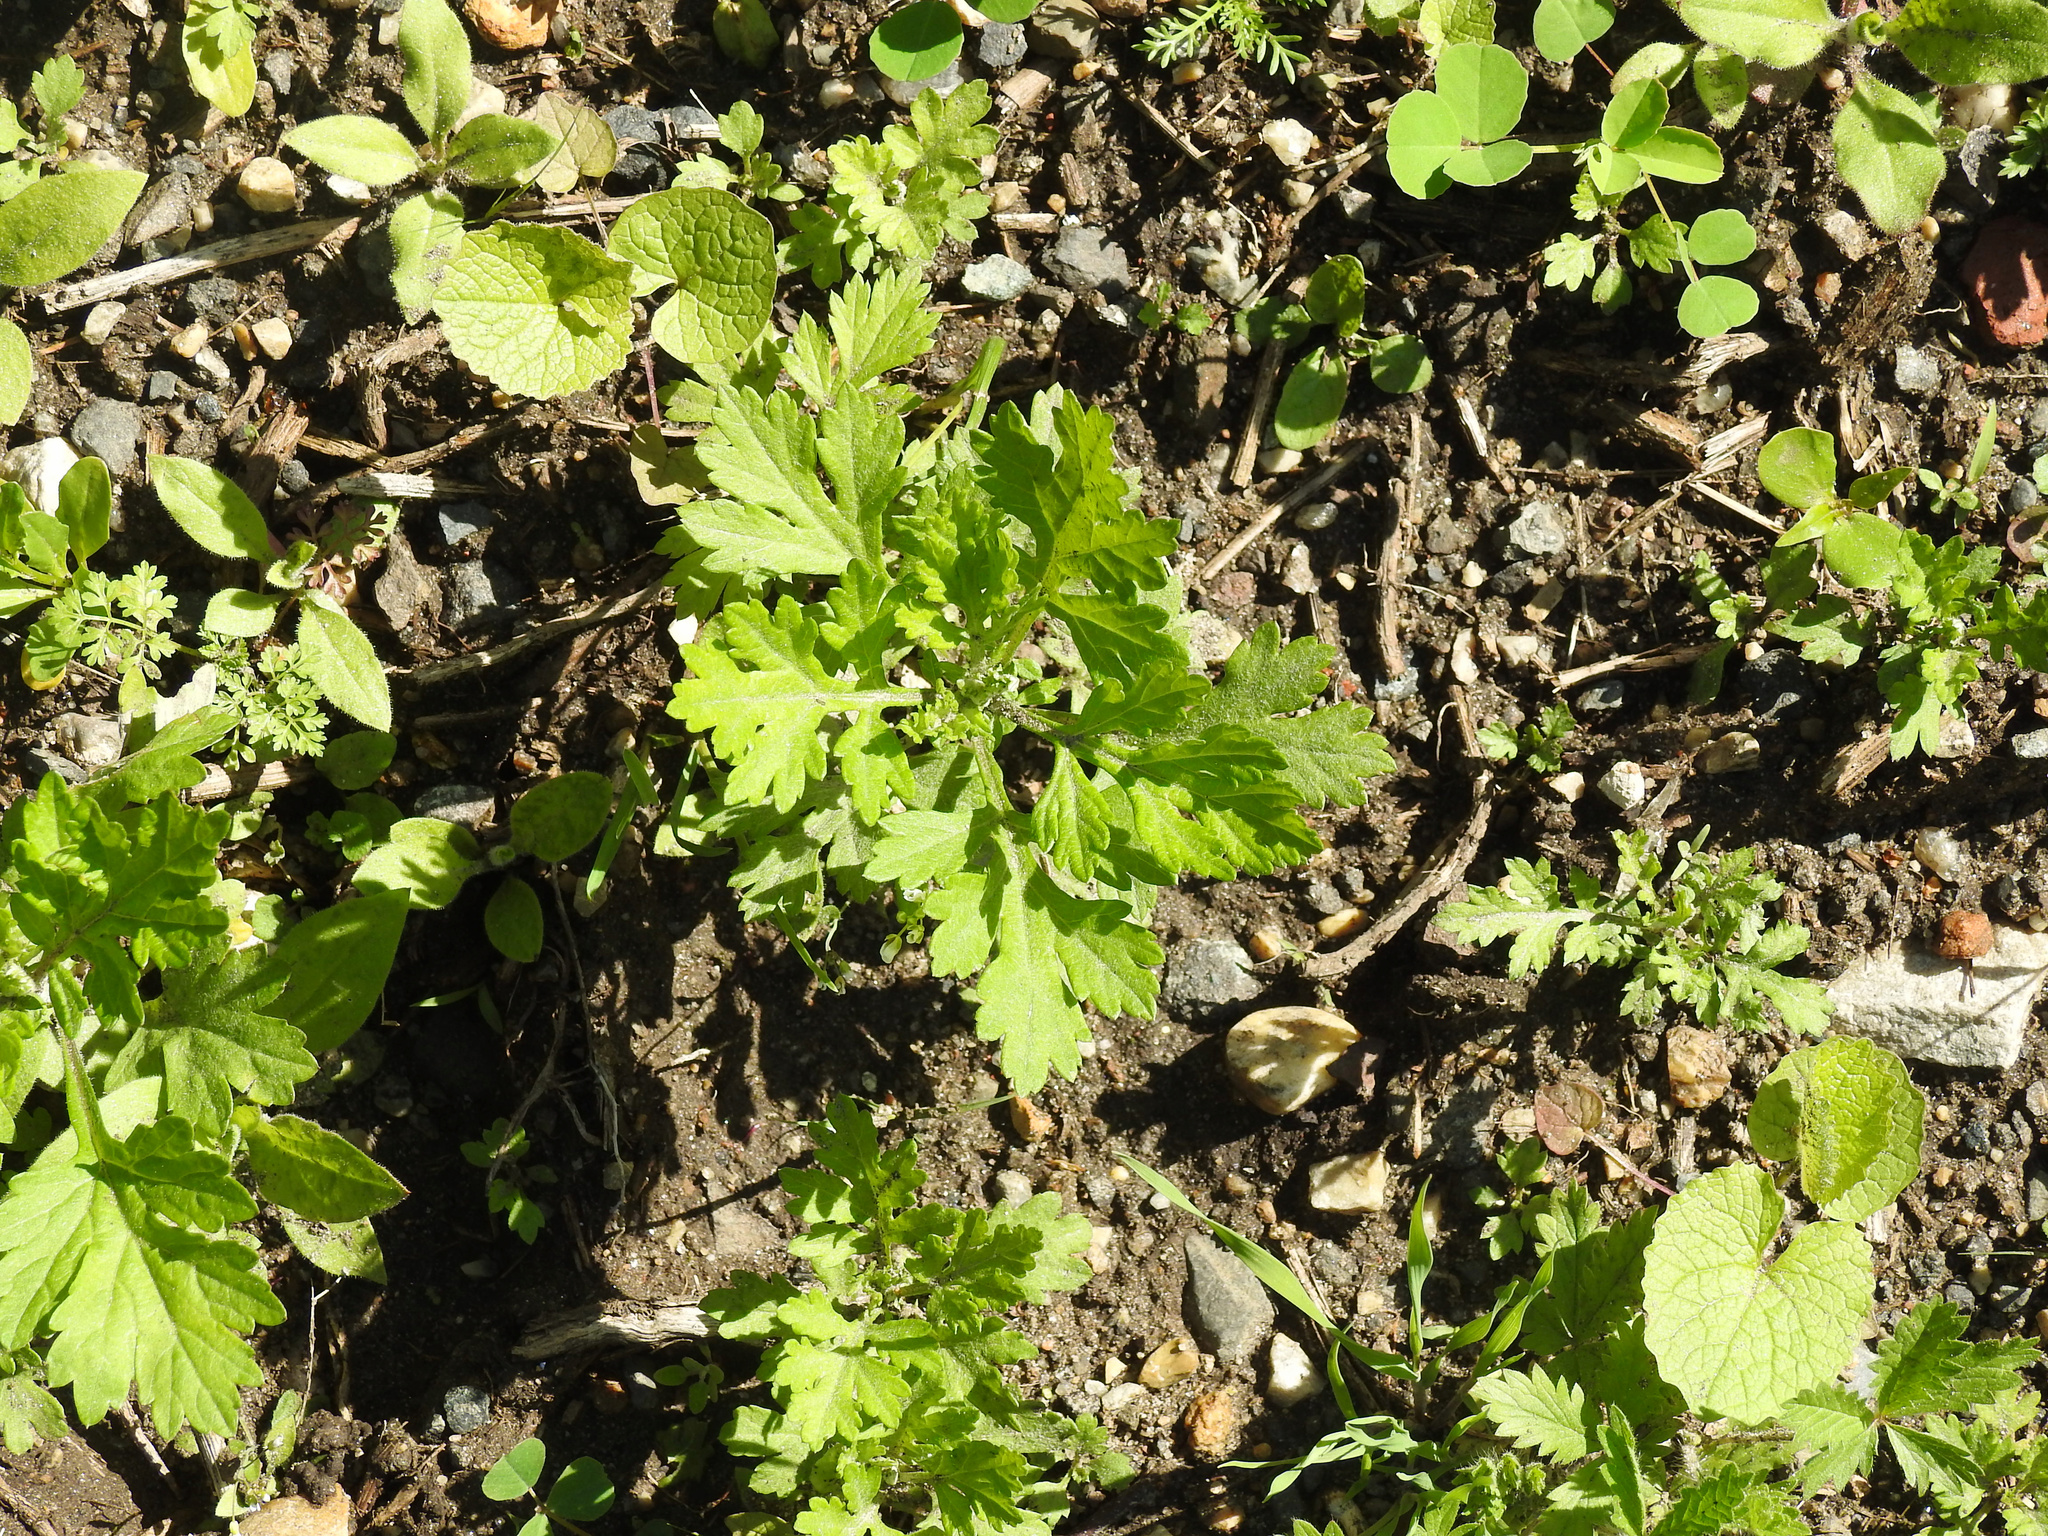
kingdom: Plantae
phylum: Tracheophyta
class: Magnoliopsida
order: Asterales
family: Asteraceae
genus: Artemisia
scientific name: Artemisia vulgaris
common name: Mugwort
